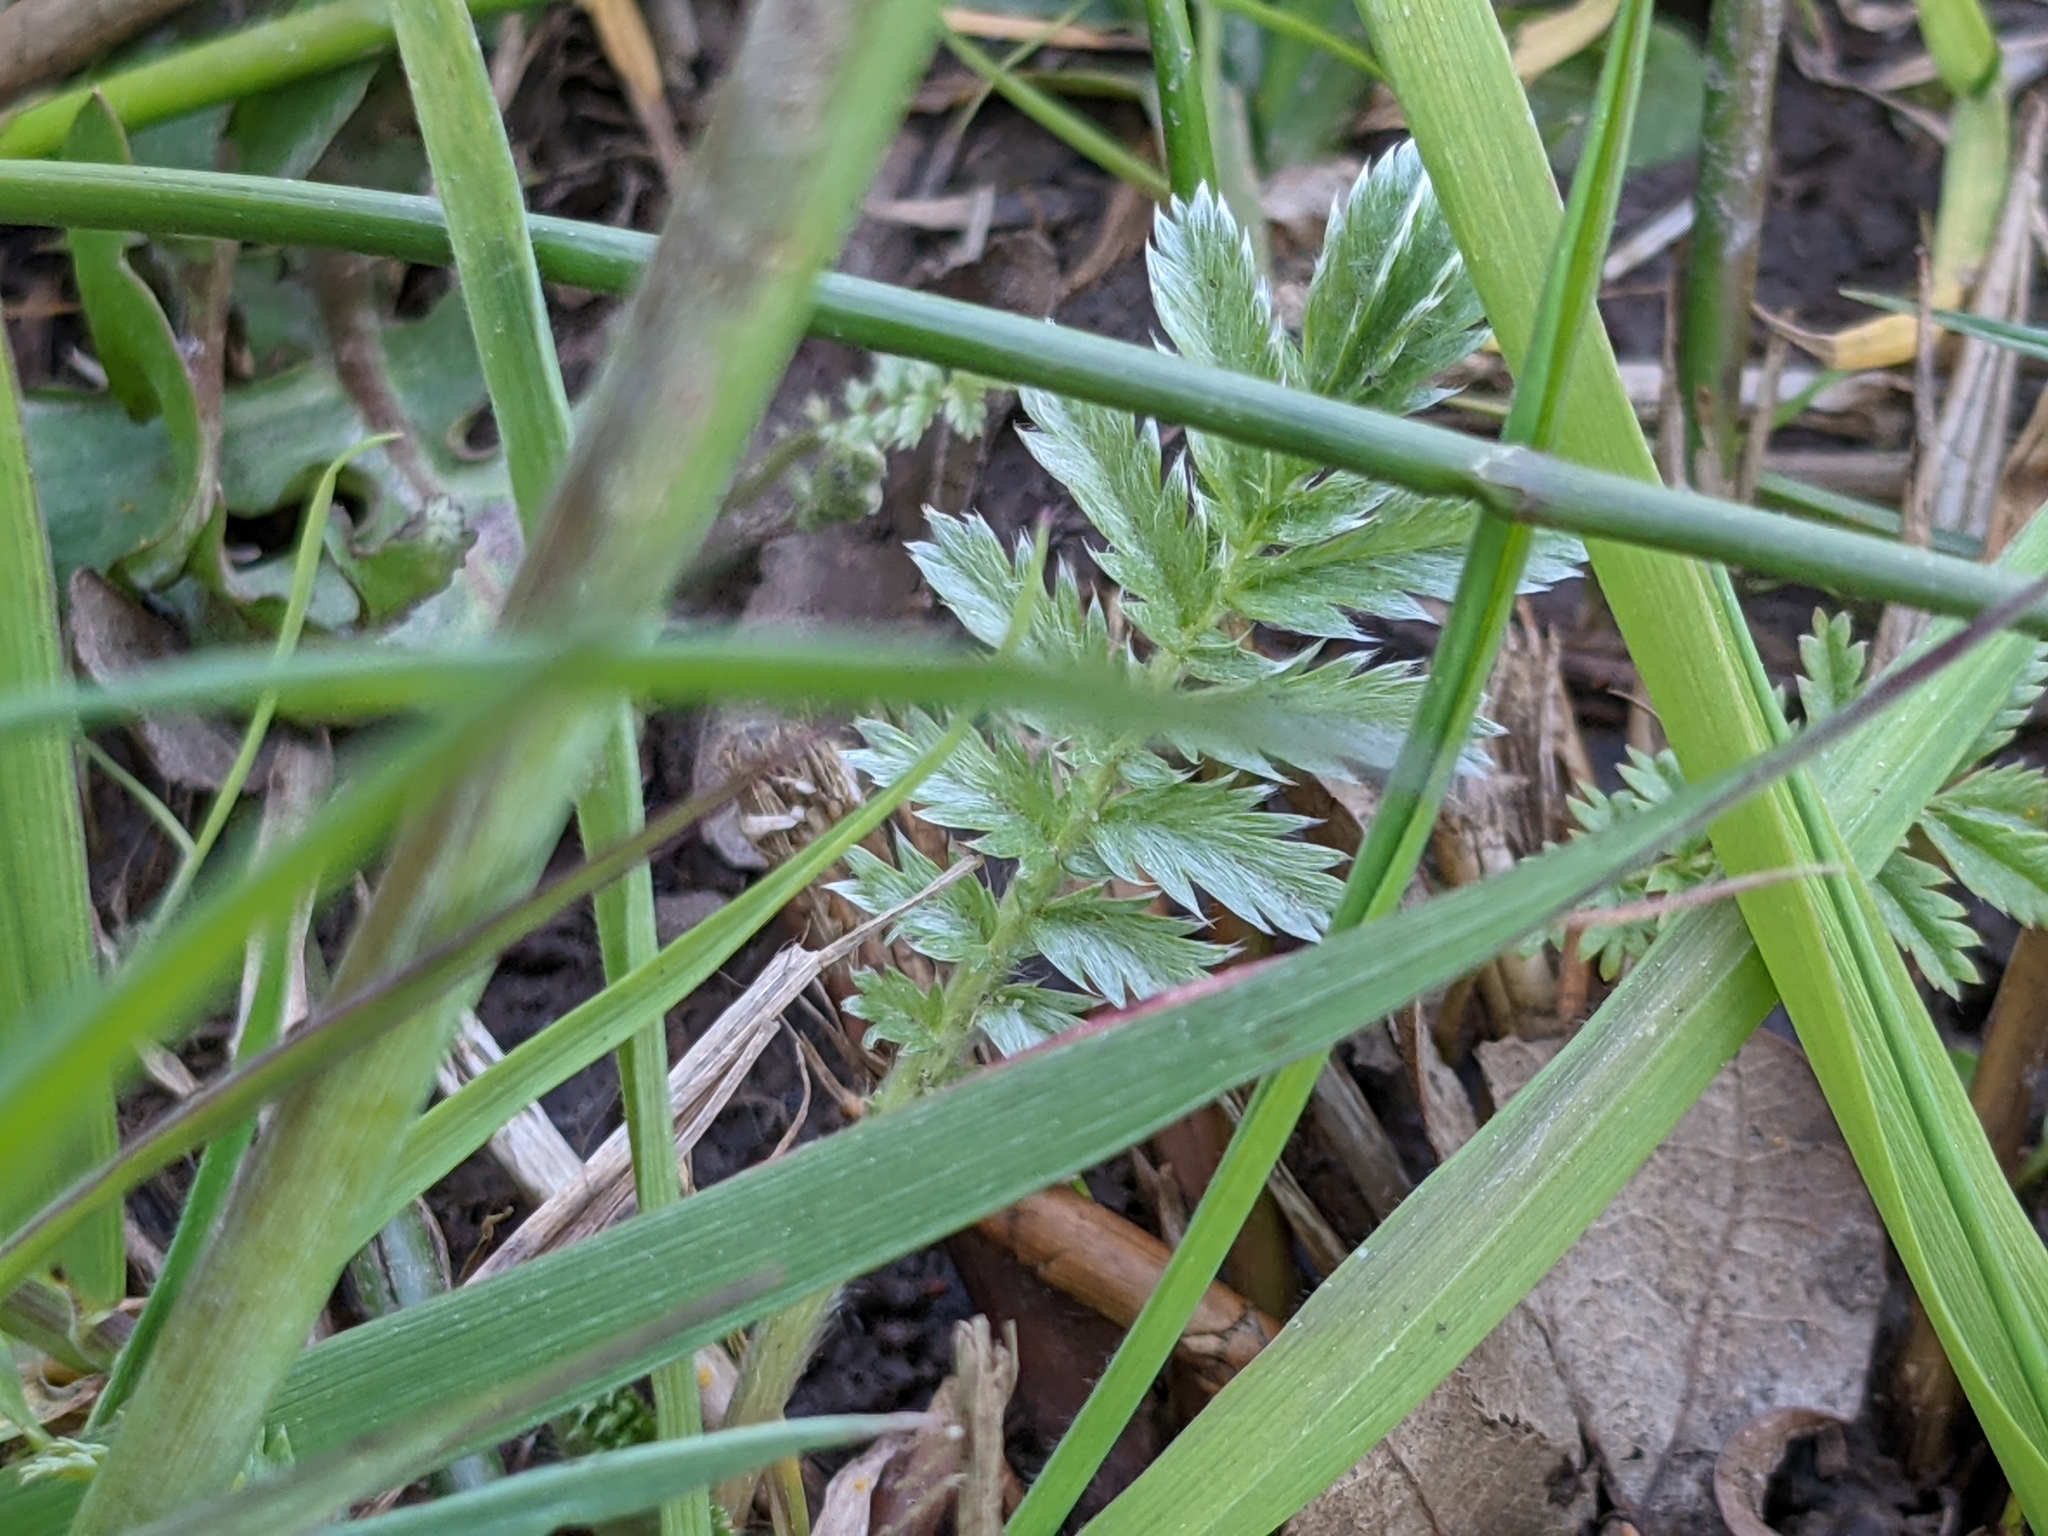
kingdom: Plantae
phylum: Tracheophyta
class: Magnoliopsida
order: Rosales
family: Rosaceae
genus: Argentina
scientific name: Argentina anserina
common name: Common silverweed
